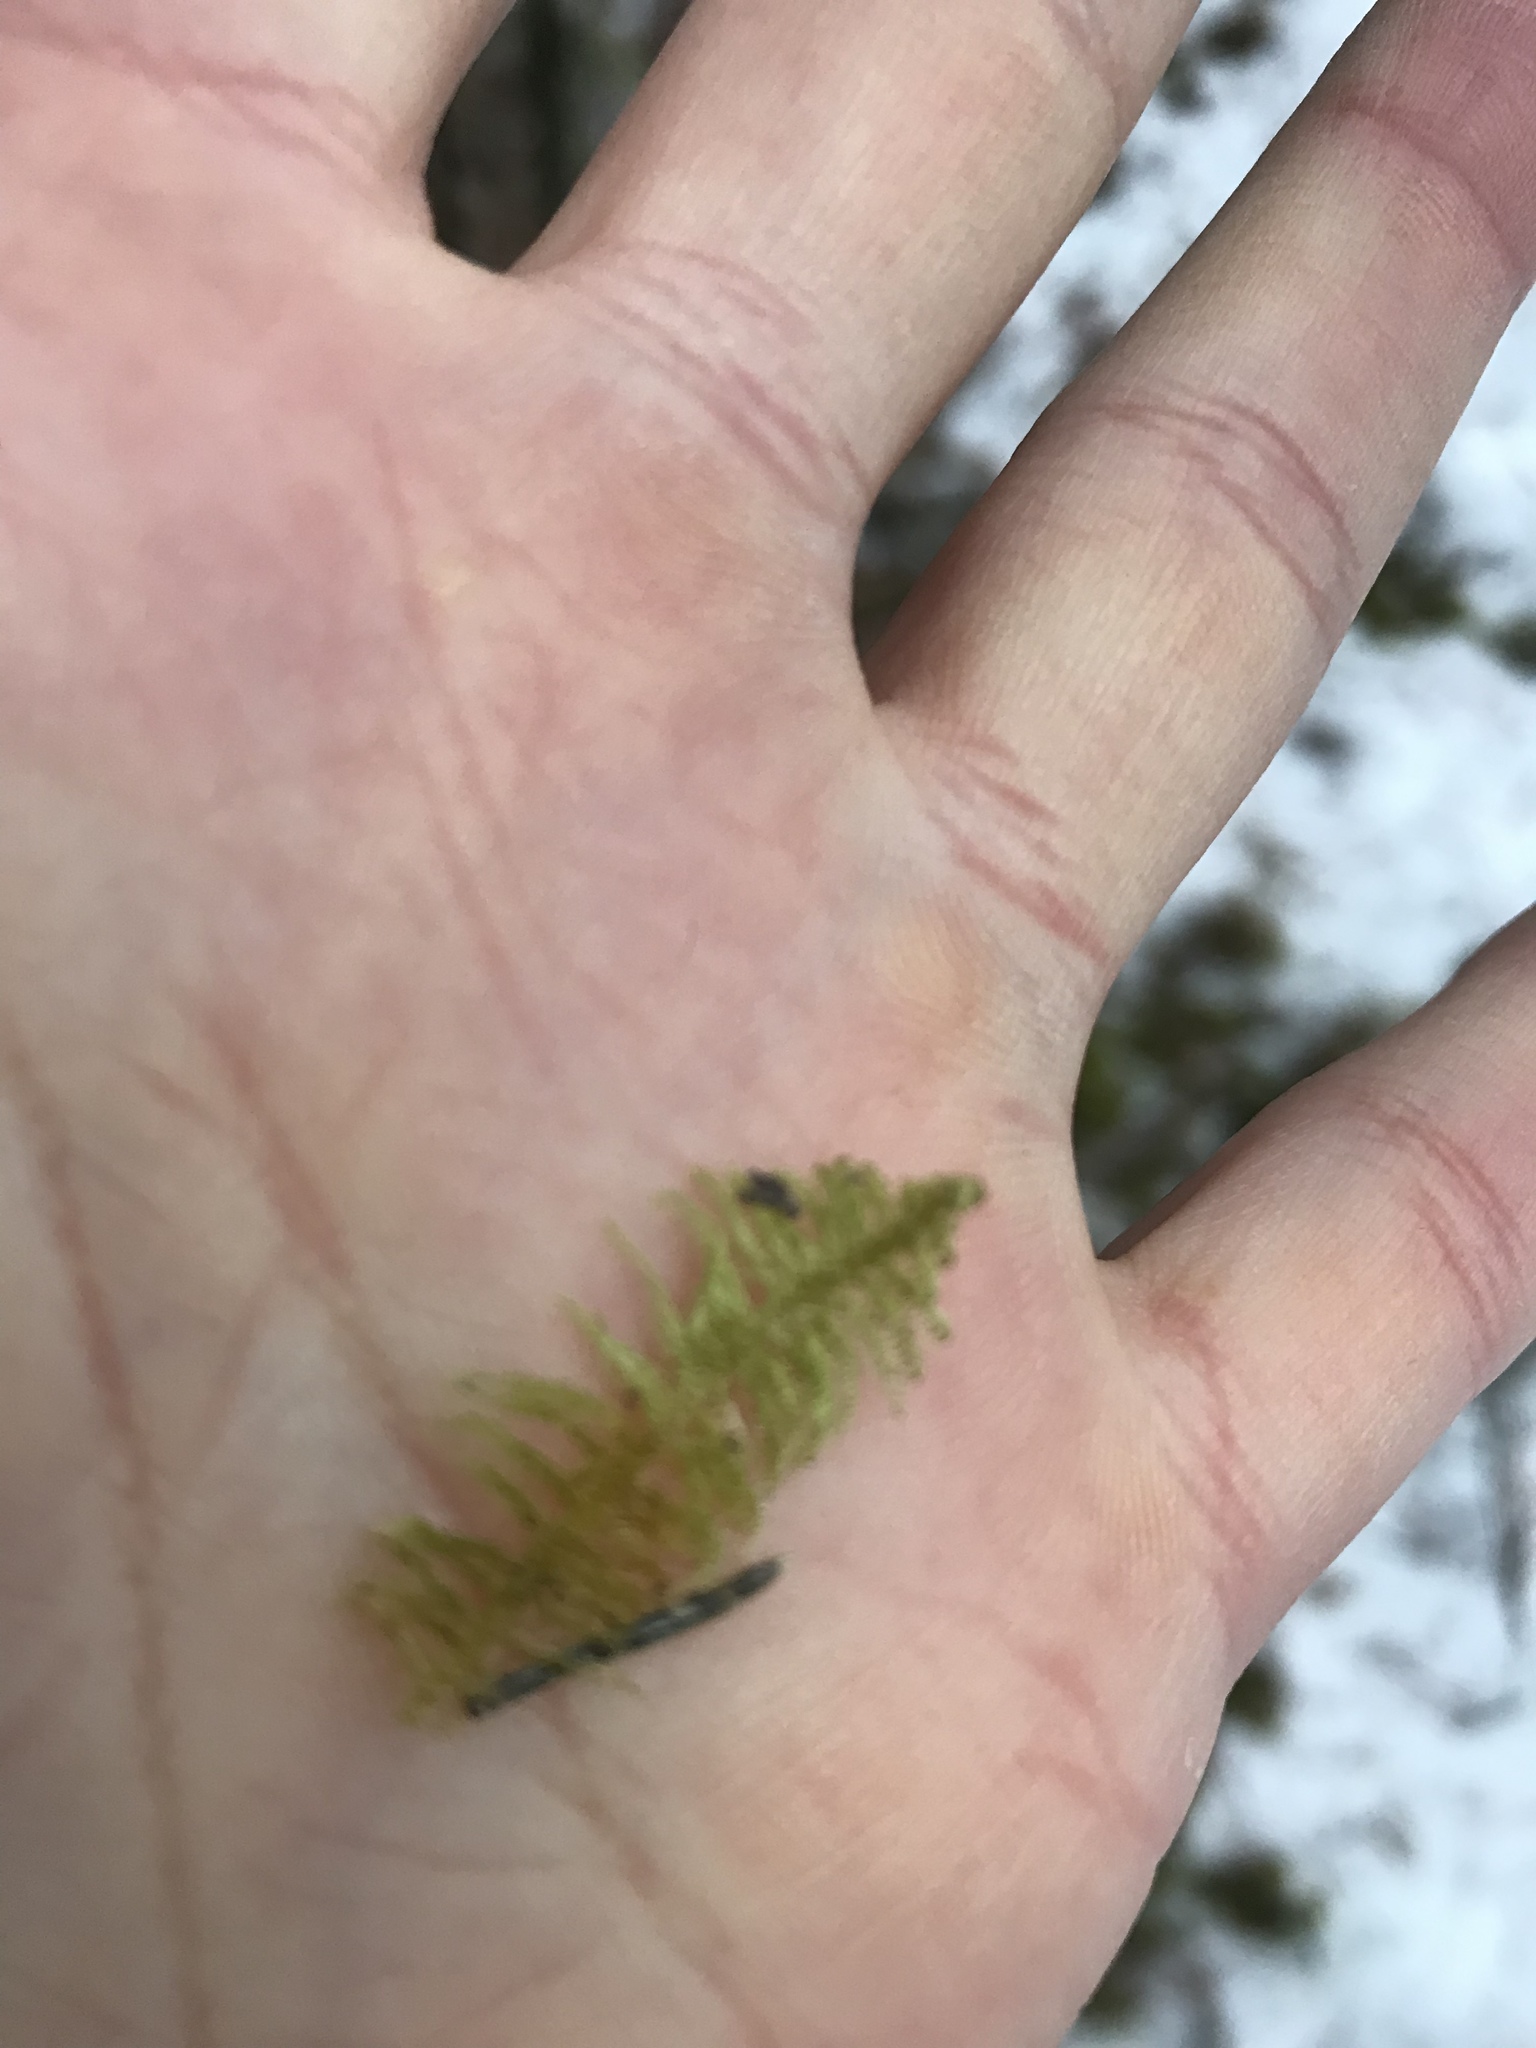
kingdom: Plantae
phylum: Bryophyta
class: Bryopsida
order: Hypnales
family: Pylaisiaceae
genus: Ptilium
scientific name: Ptilium crista-castrensis
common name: Knight's plume moss
